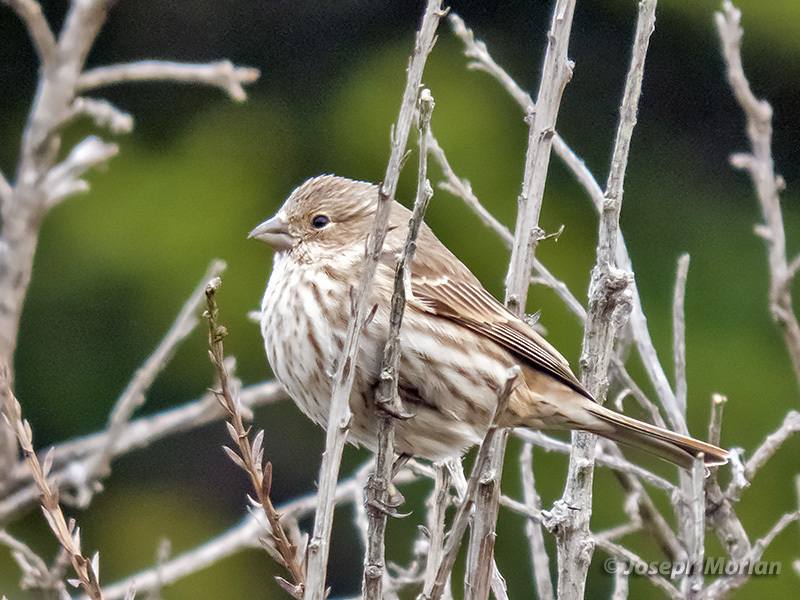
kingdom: Animalia
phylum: Chordata
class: Aves
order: Passeriformes
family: Fringillidae
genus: Haemorhous
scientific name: Haemorhous mexicanus
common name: House finch
